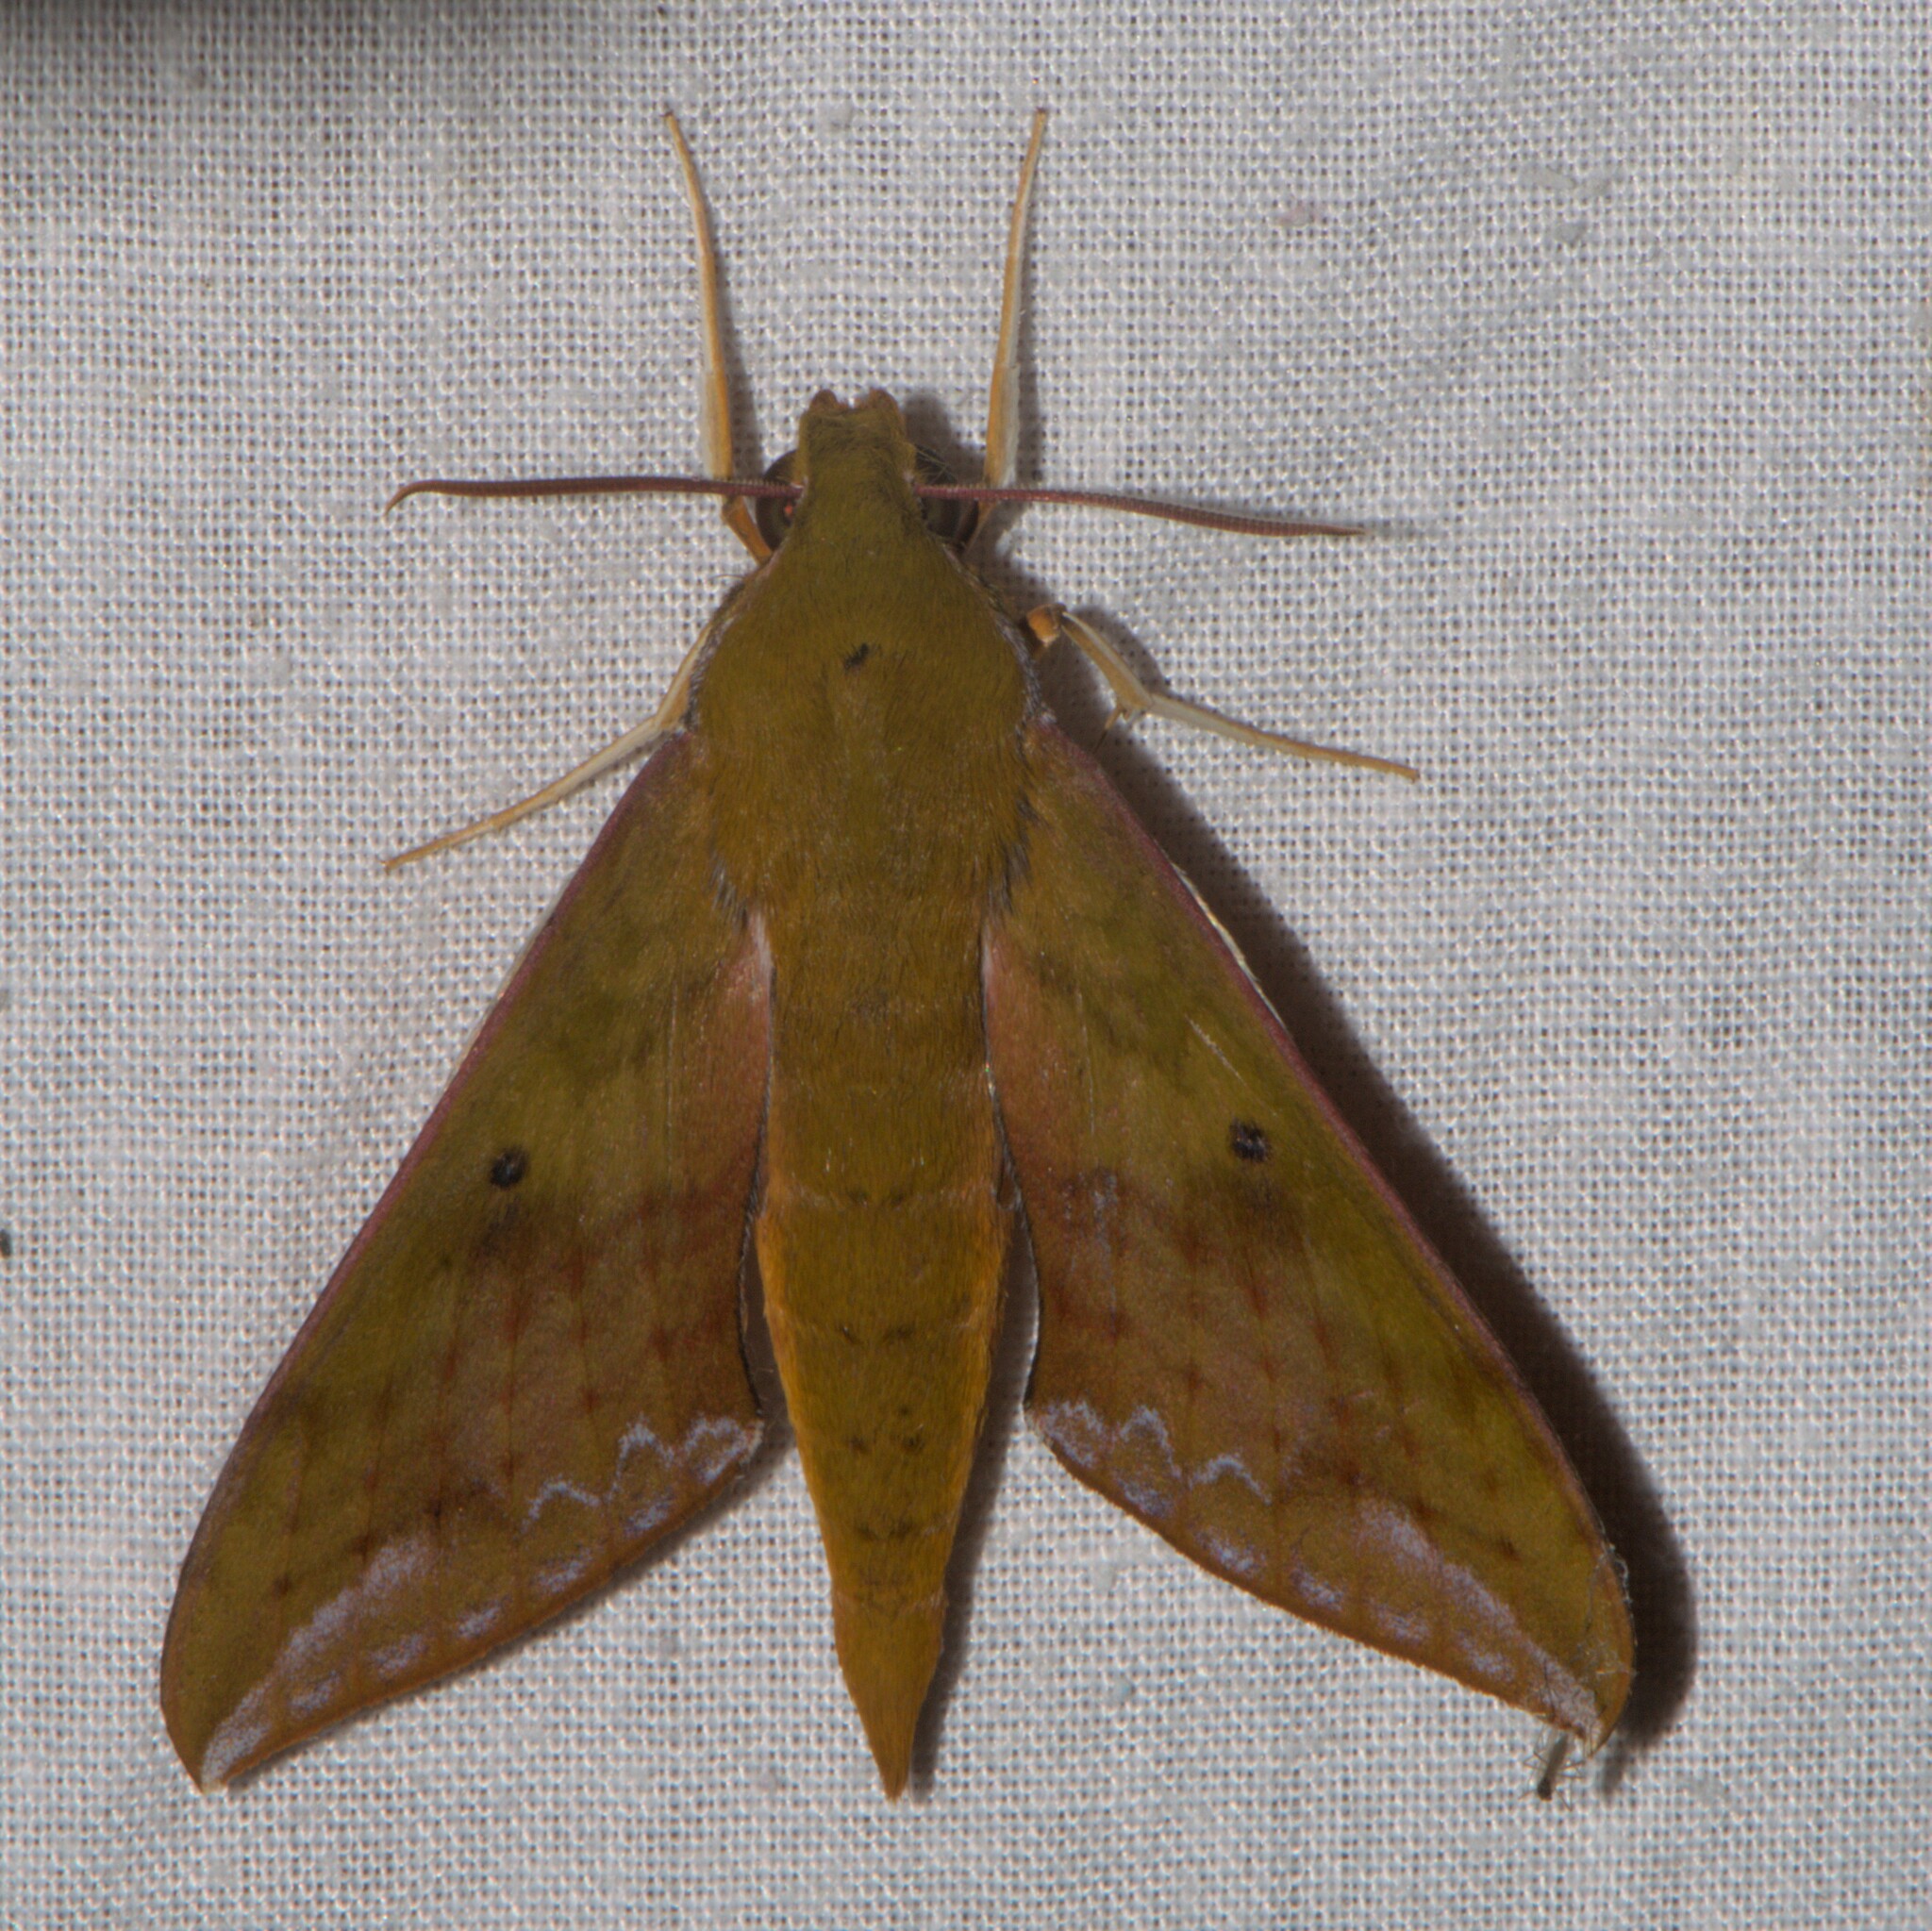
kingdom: Animalia
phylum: Arthropoda
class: Insecta
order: Lepidoptera
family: Sphingidae
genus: Rhagastis
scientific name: Rhagastis olivacea
